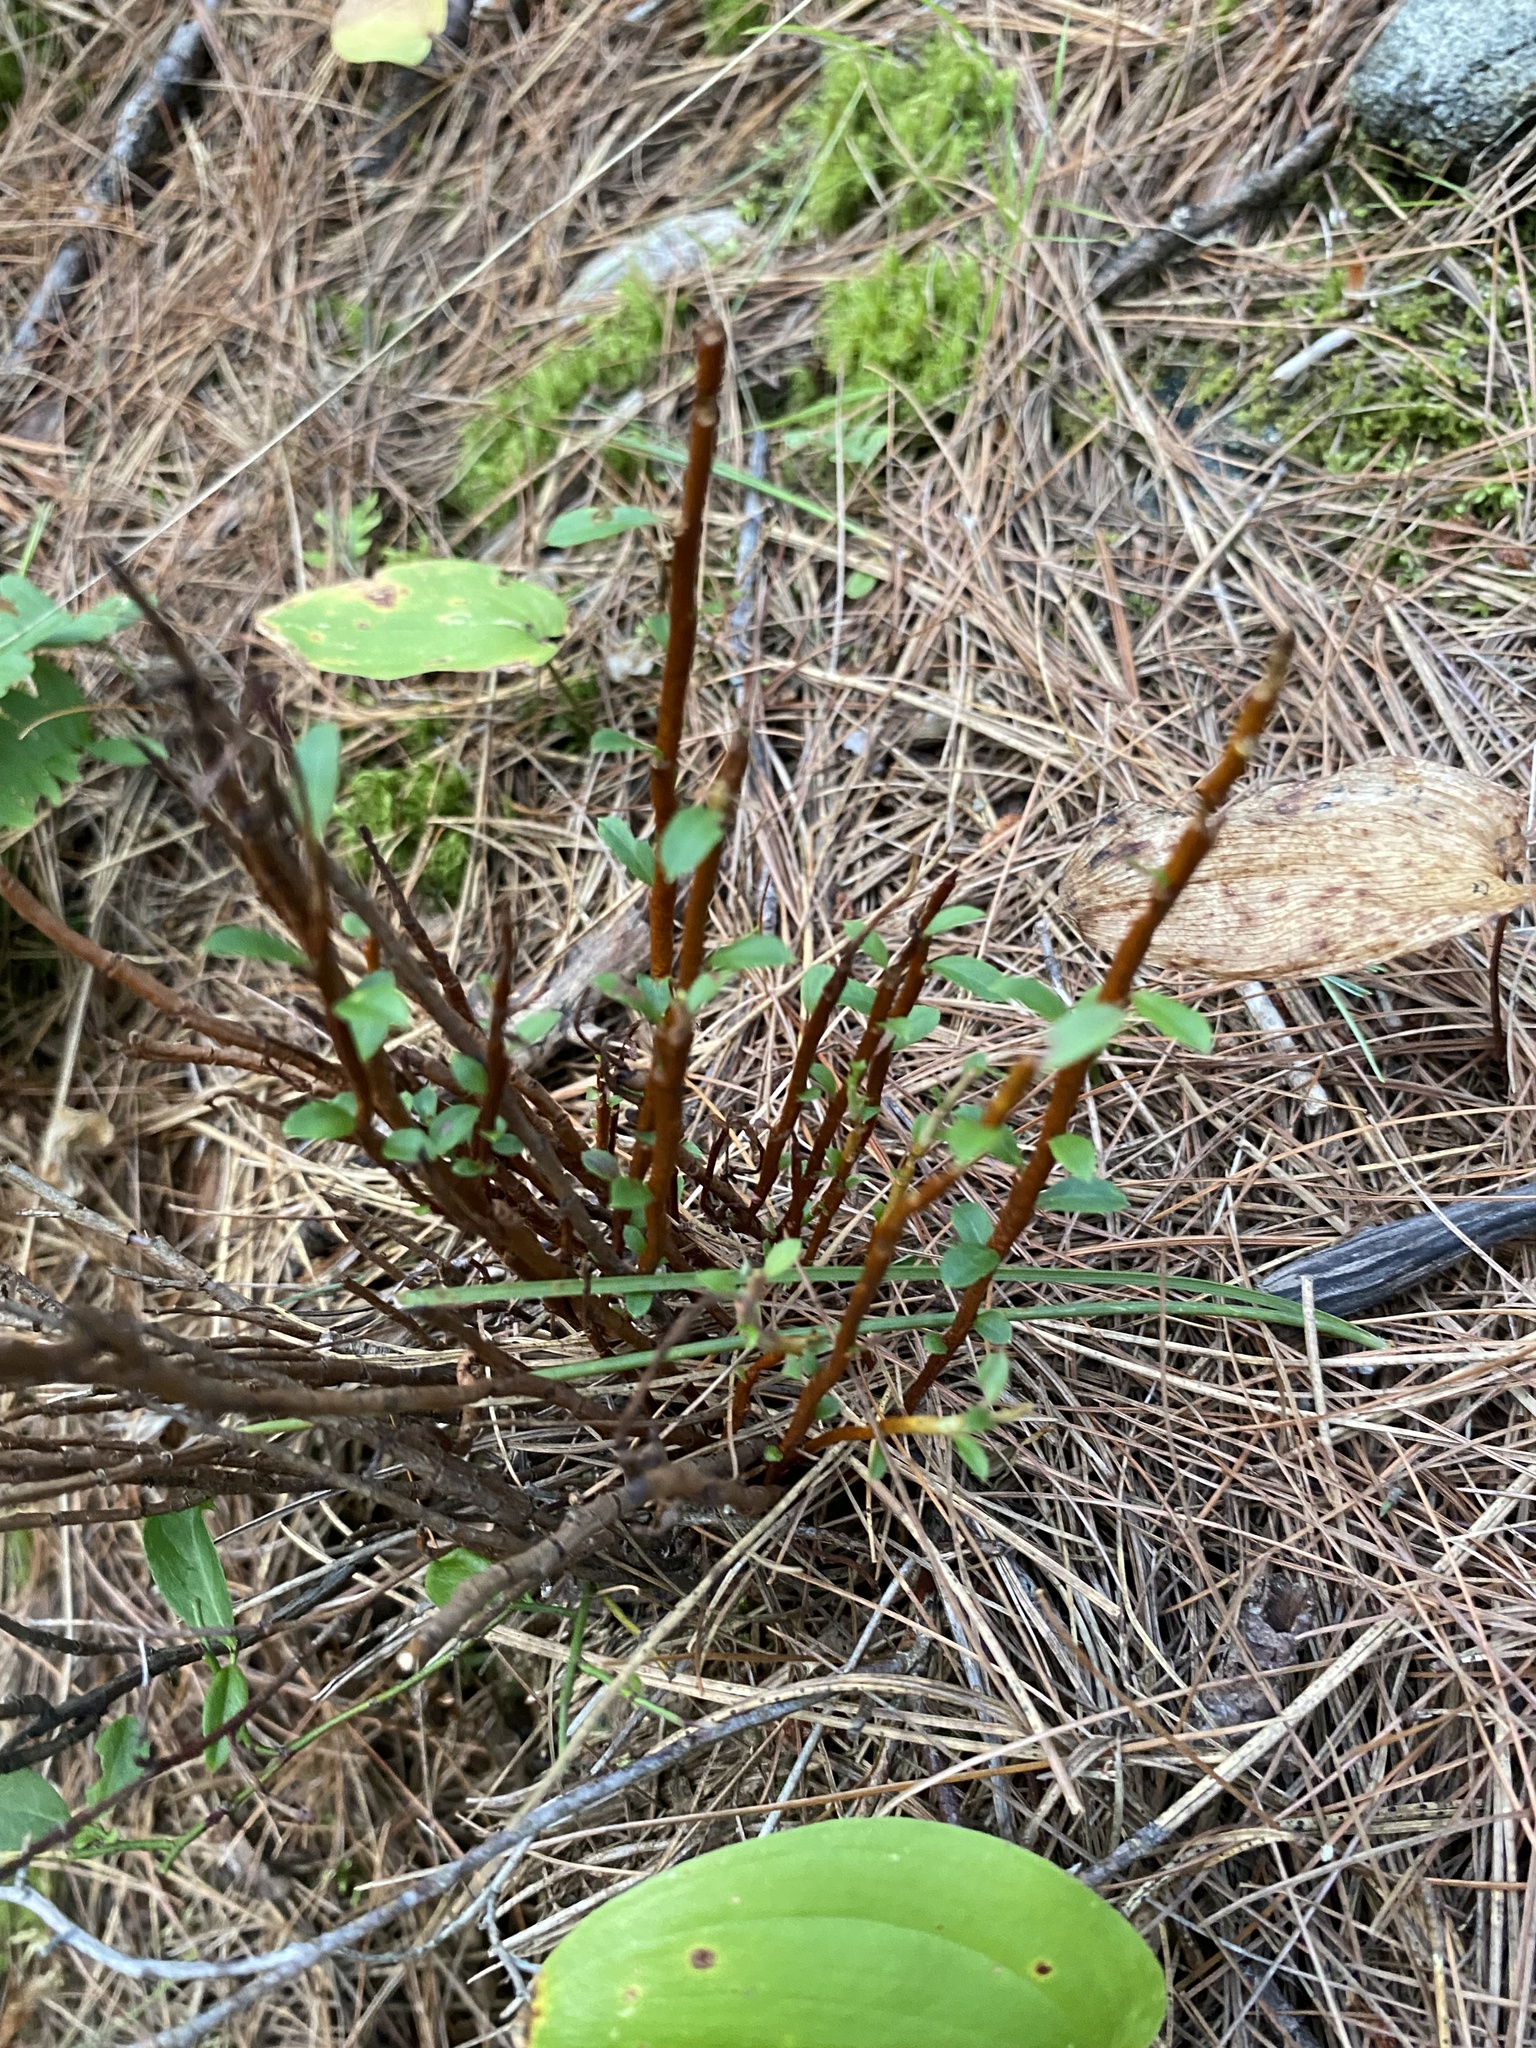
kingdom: Fungi
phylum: Basidiomycota
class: Pucciniomycetes
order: Pucciniales
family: Pucciniastraceae
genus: Calyptospora
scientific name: Calyptospora columnaris
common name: Huckleberry broom rust fungus
